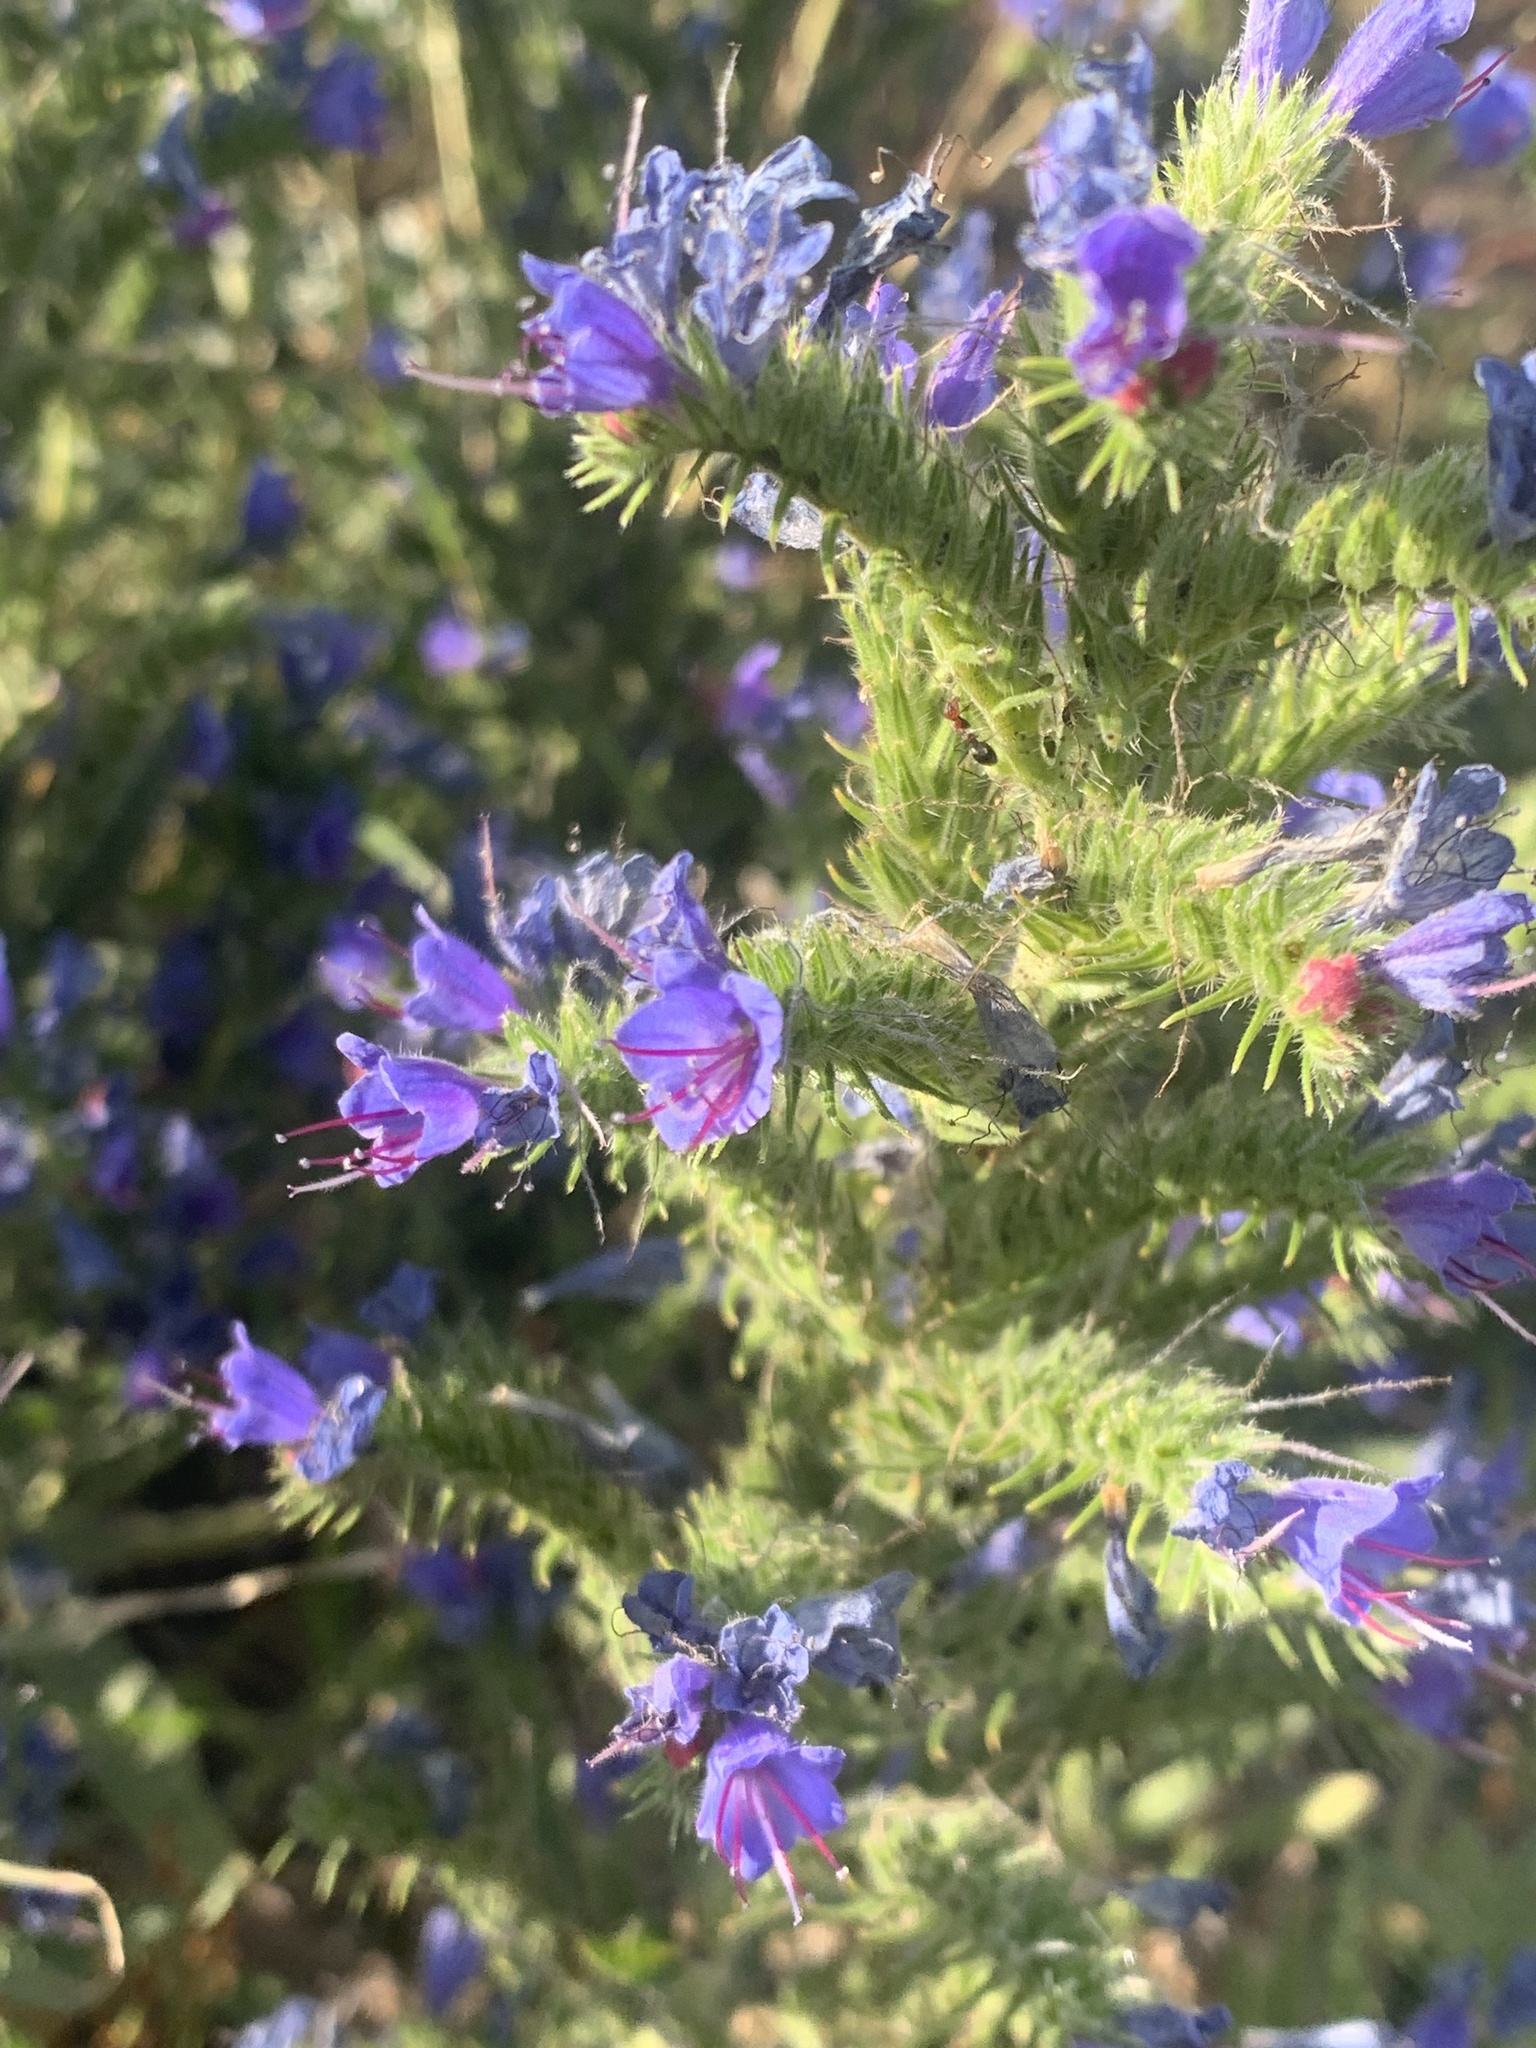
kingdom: Plantae
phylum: Tracheophyta
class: Magnoliopsida
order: Boraginales
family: Boraginaceae
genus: Echium
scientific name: Echium vulgare
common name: Common viper's bugloss
